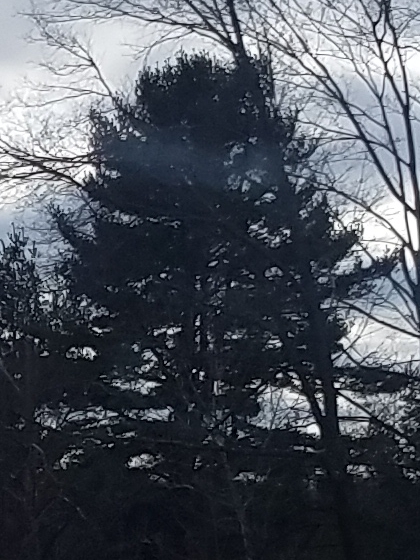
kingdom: Plantae
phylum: Tracheophyta
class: Pinopsida
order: Pinales
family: Pinaceae
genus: Pinus
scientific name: Pinus strobus
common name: Weymouth pine
